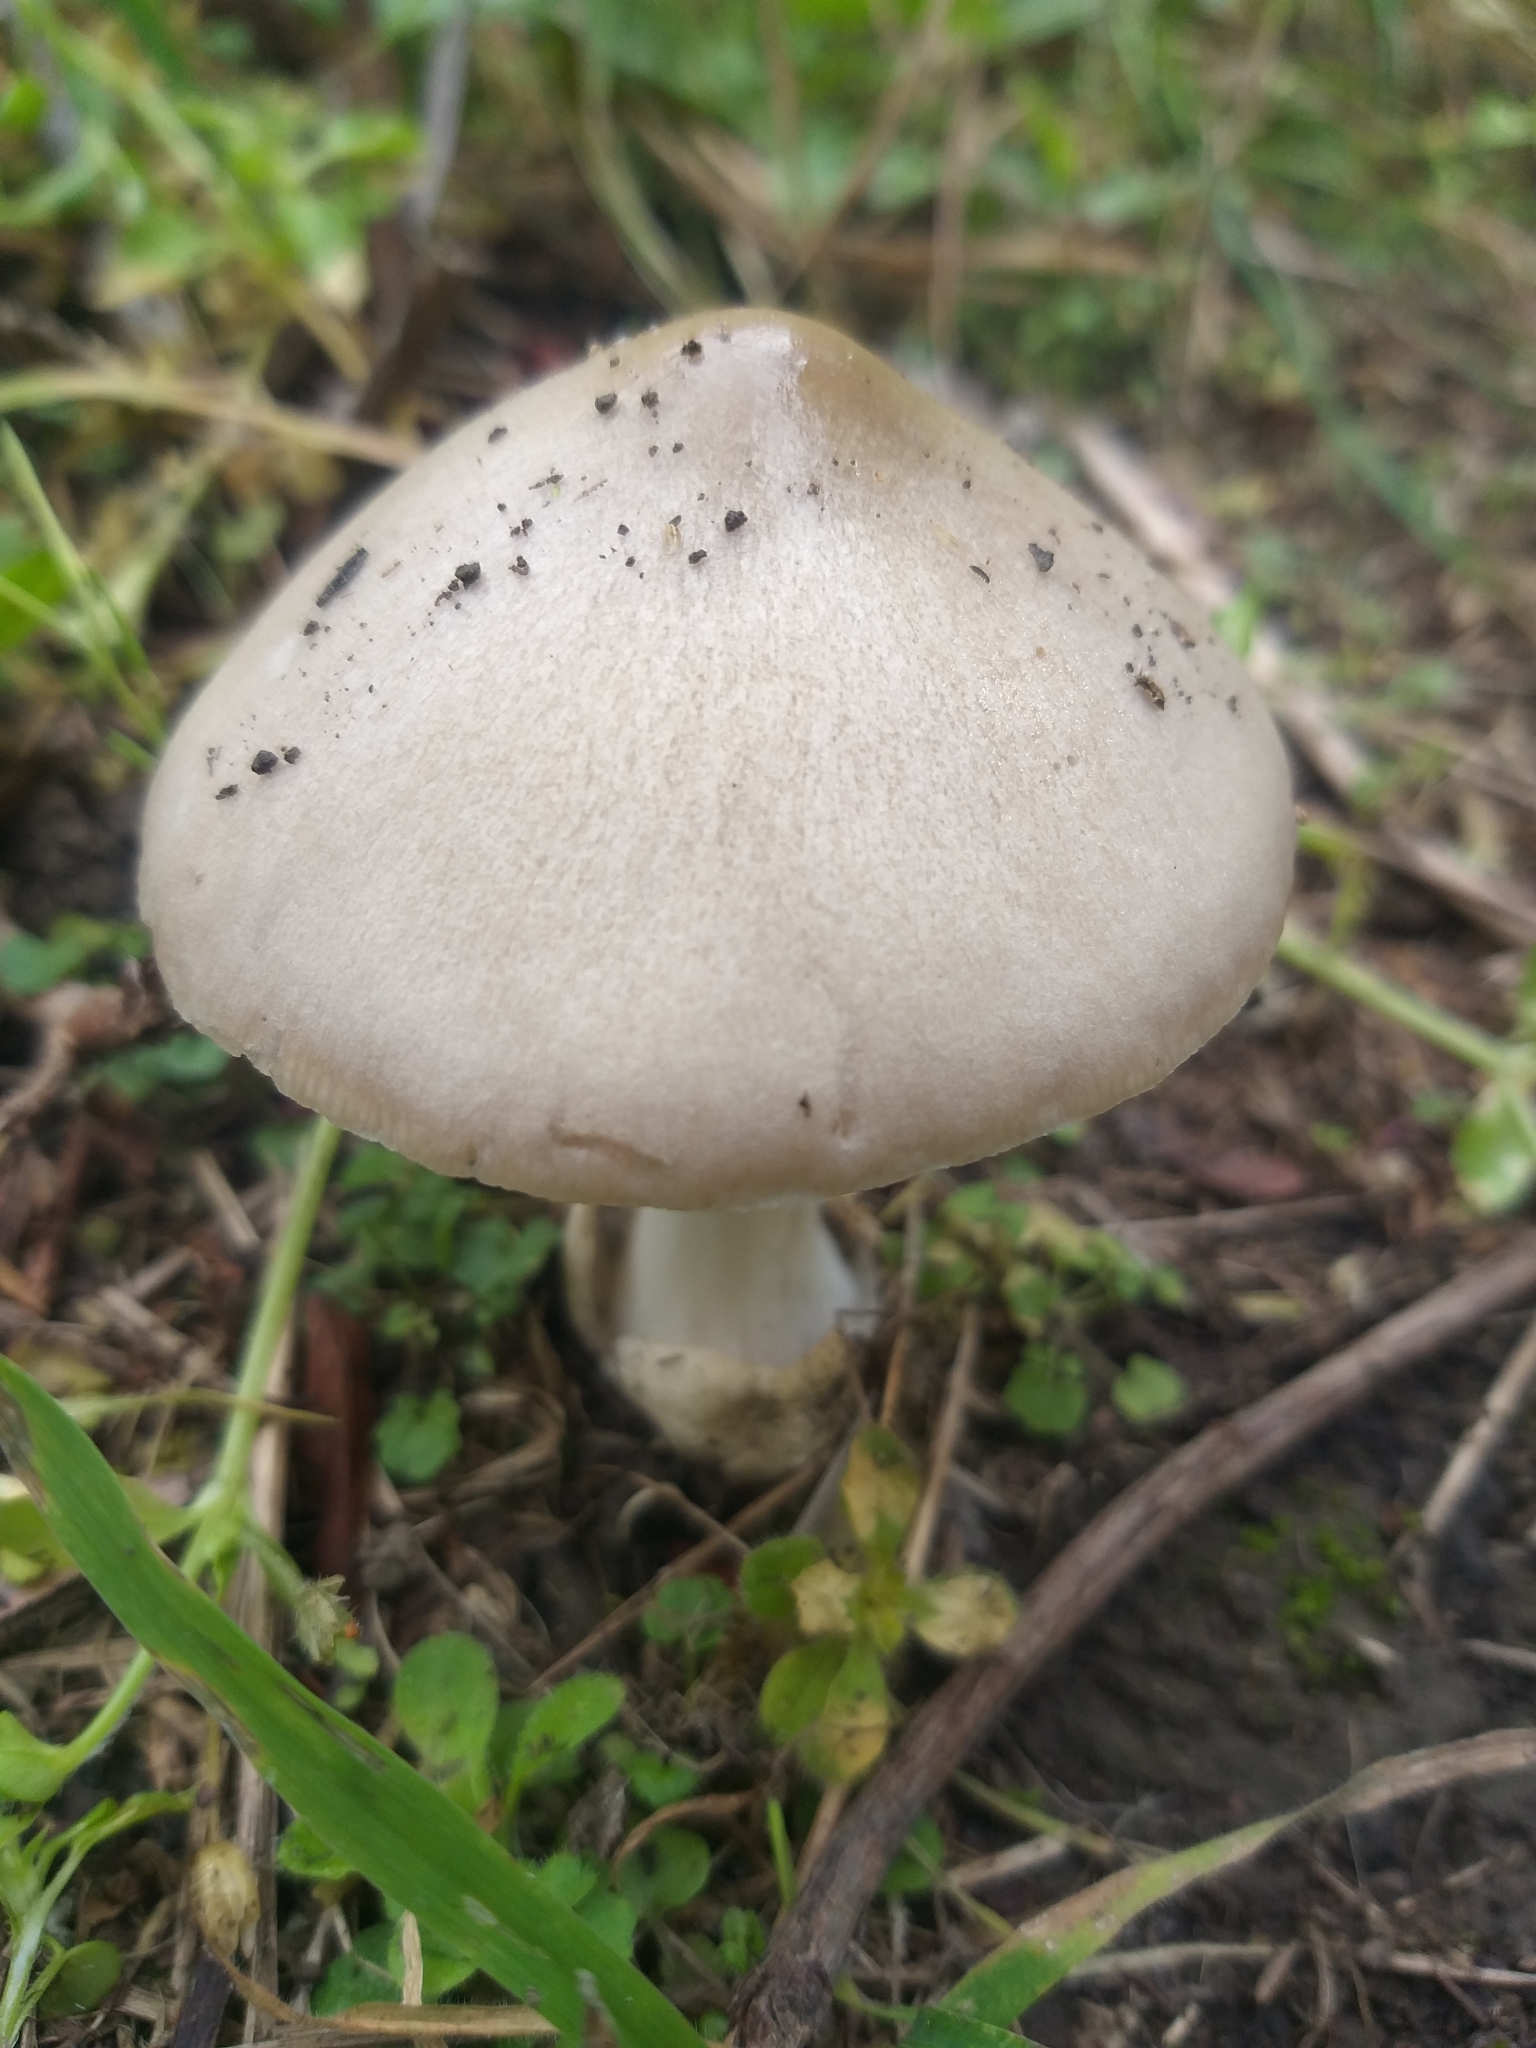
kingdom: Fungi
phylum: Basidiomycota
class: Agaricomycetes
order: Agaricales
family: Pluteaceae
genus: Volvopluteus
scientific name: Volvopluteus gloiocephalus
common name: Stubble rosegill
